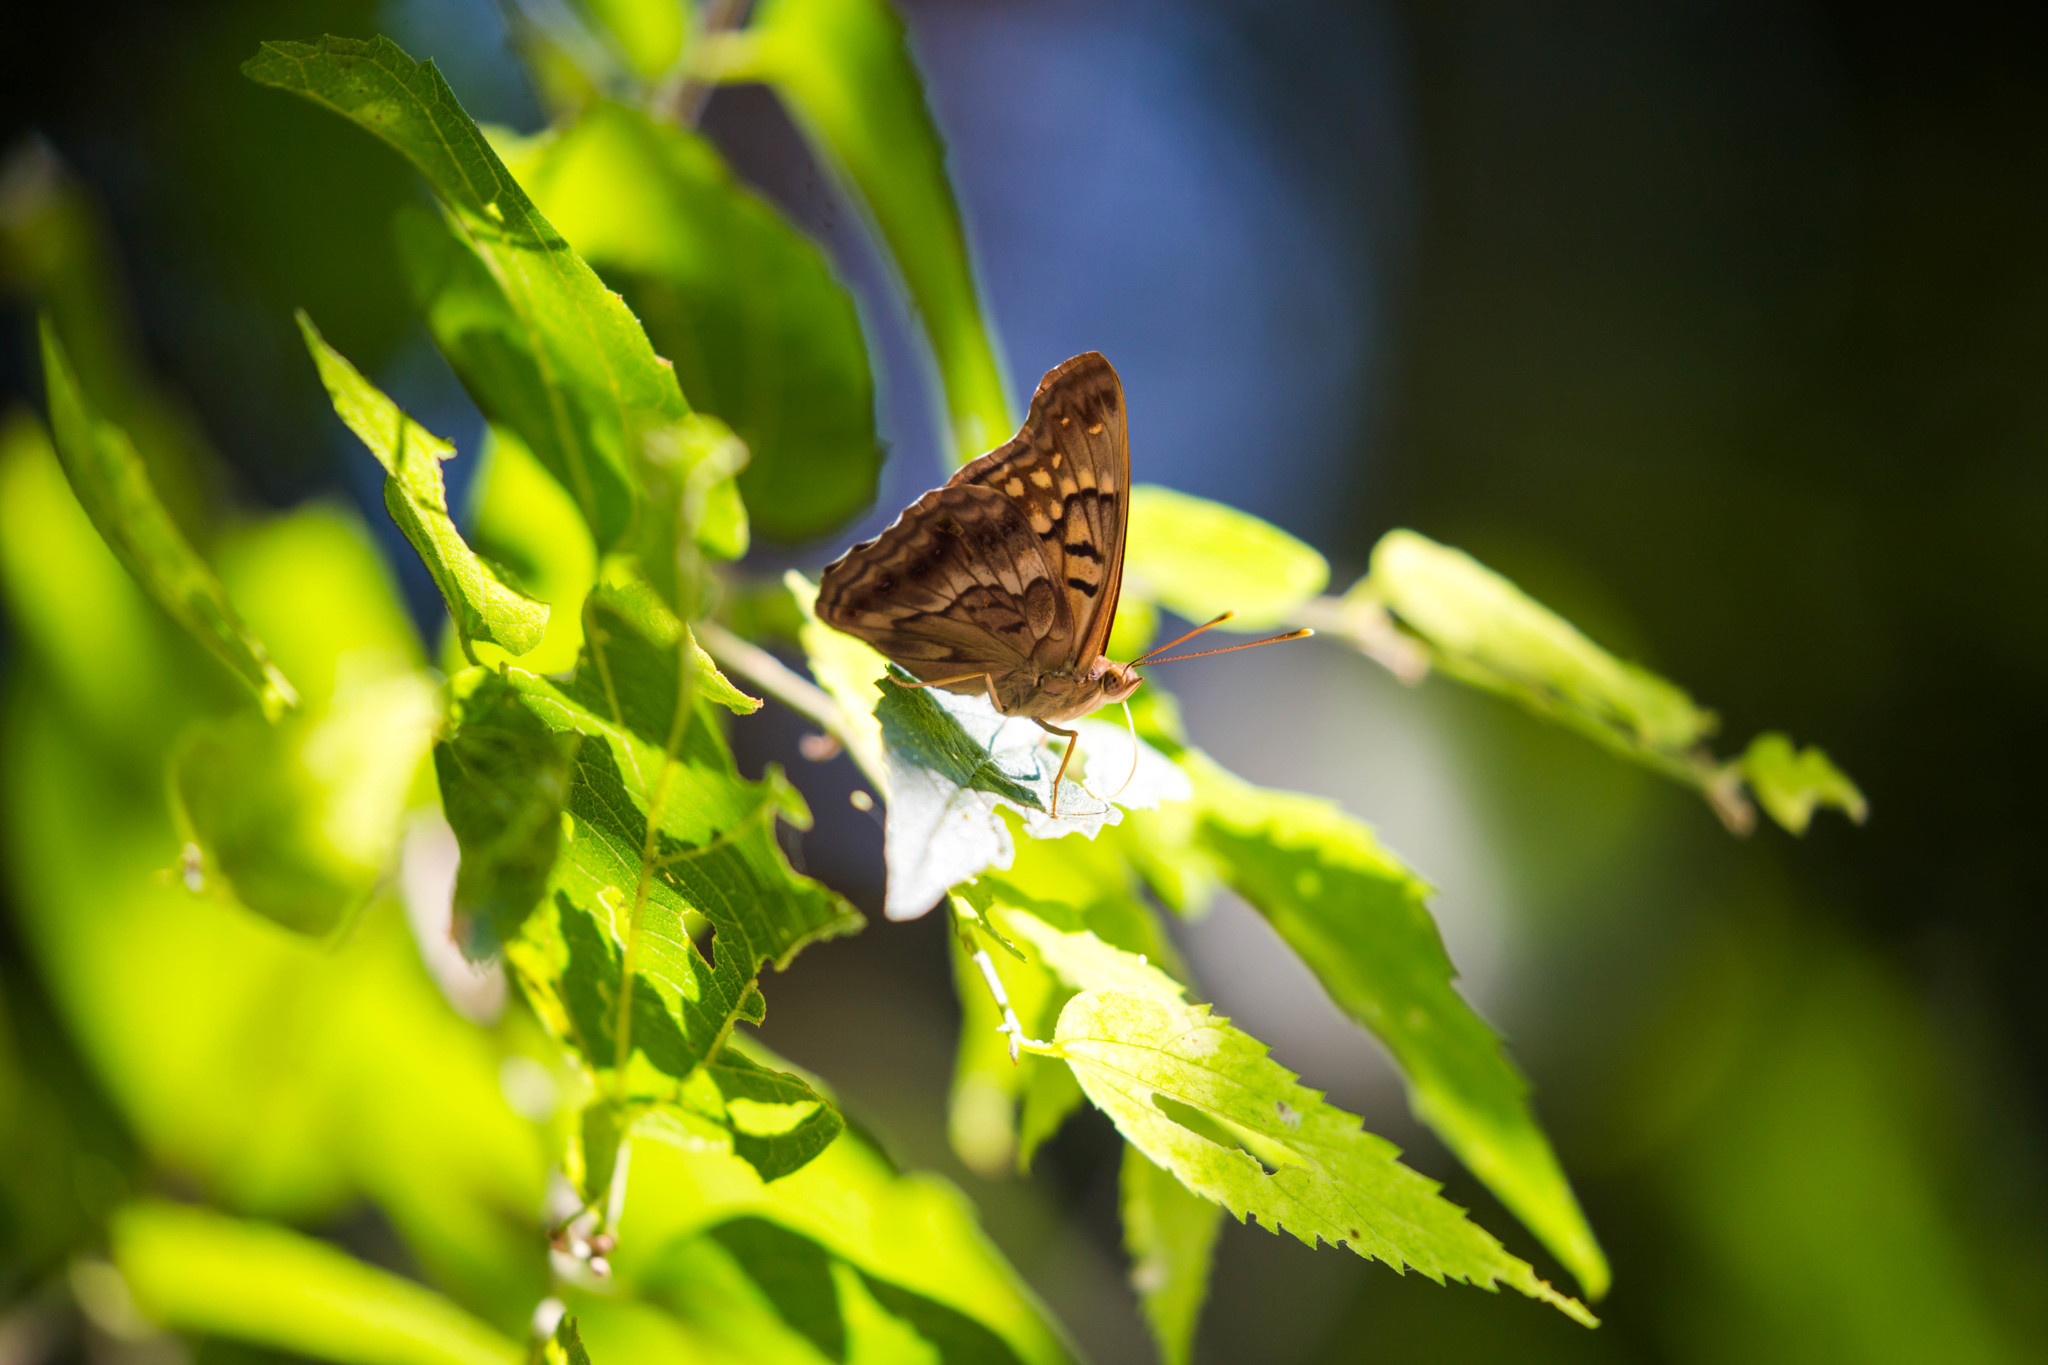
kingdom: Animalia
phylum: Arthropoda
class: Insecta
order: Lepidoptera
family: Nymphalidae
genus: Asterocampa
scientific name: Asterocampa clyton
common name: Tawny emperor
